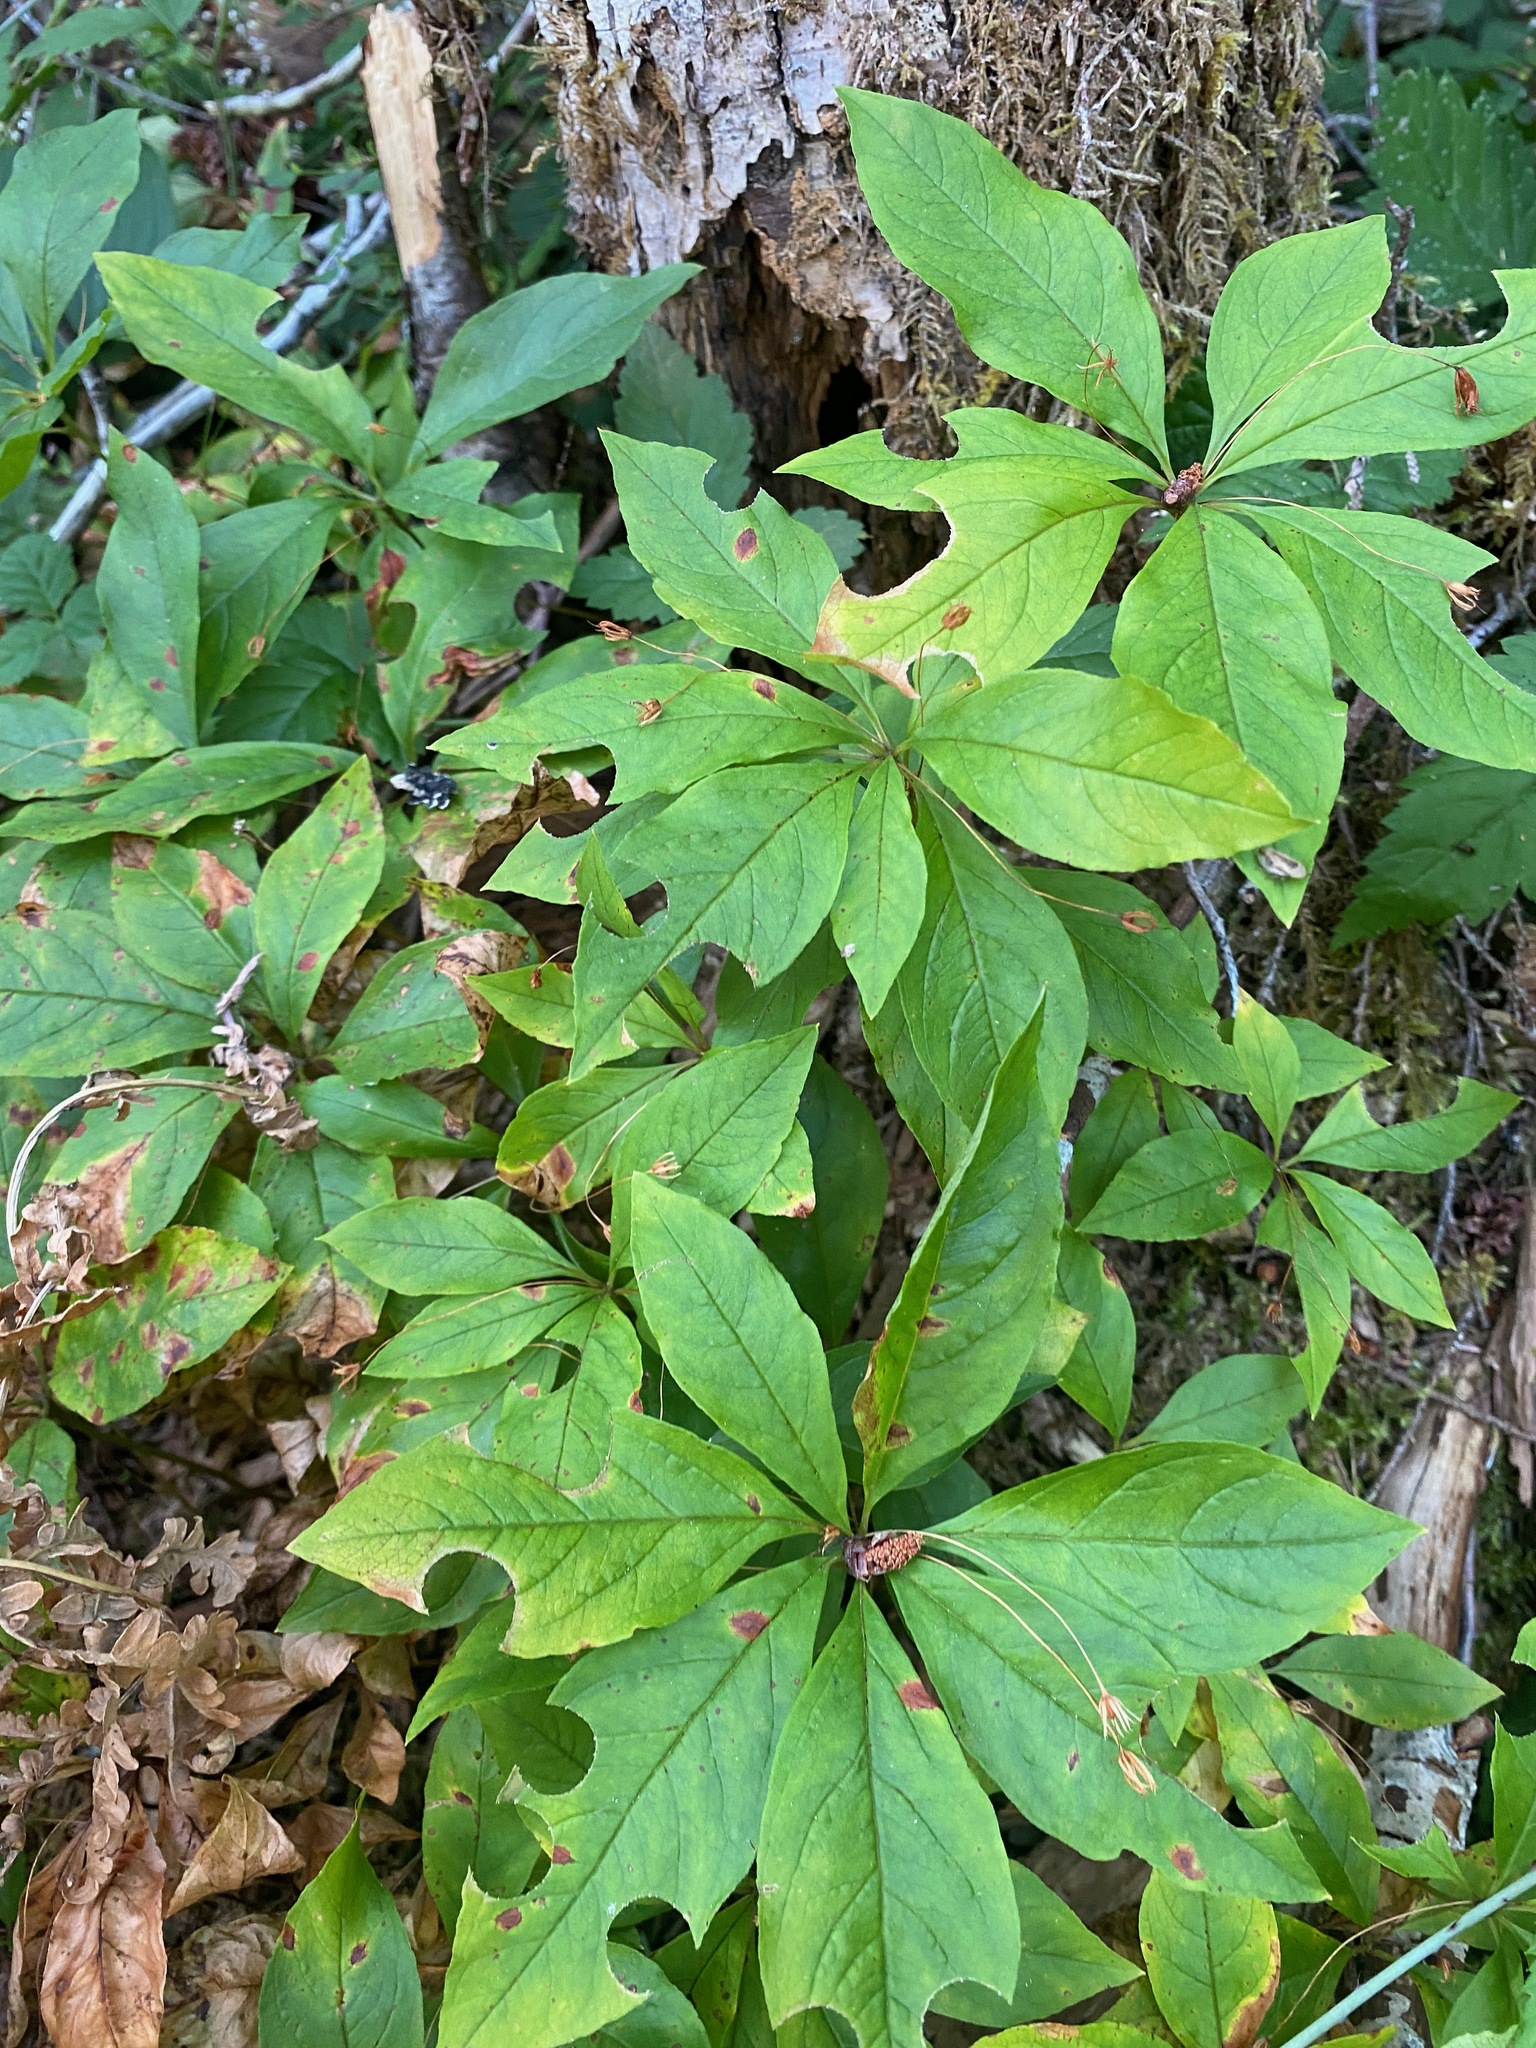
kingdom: Plantae
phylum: Tracheophyta
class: Magnoliopsida
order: Ericales
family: Primulaceae
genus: Lysimachia
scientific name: Lysimachia latifolia
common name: Pacific starflower
